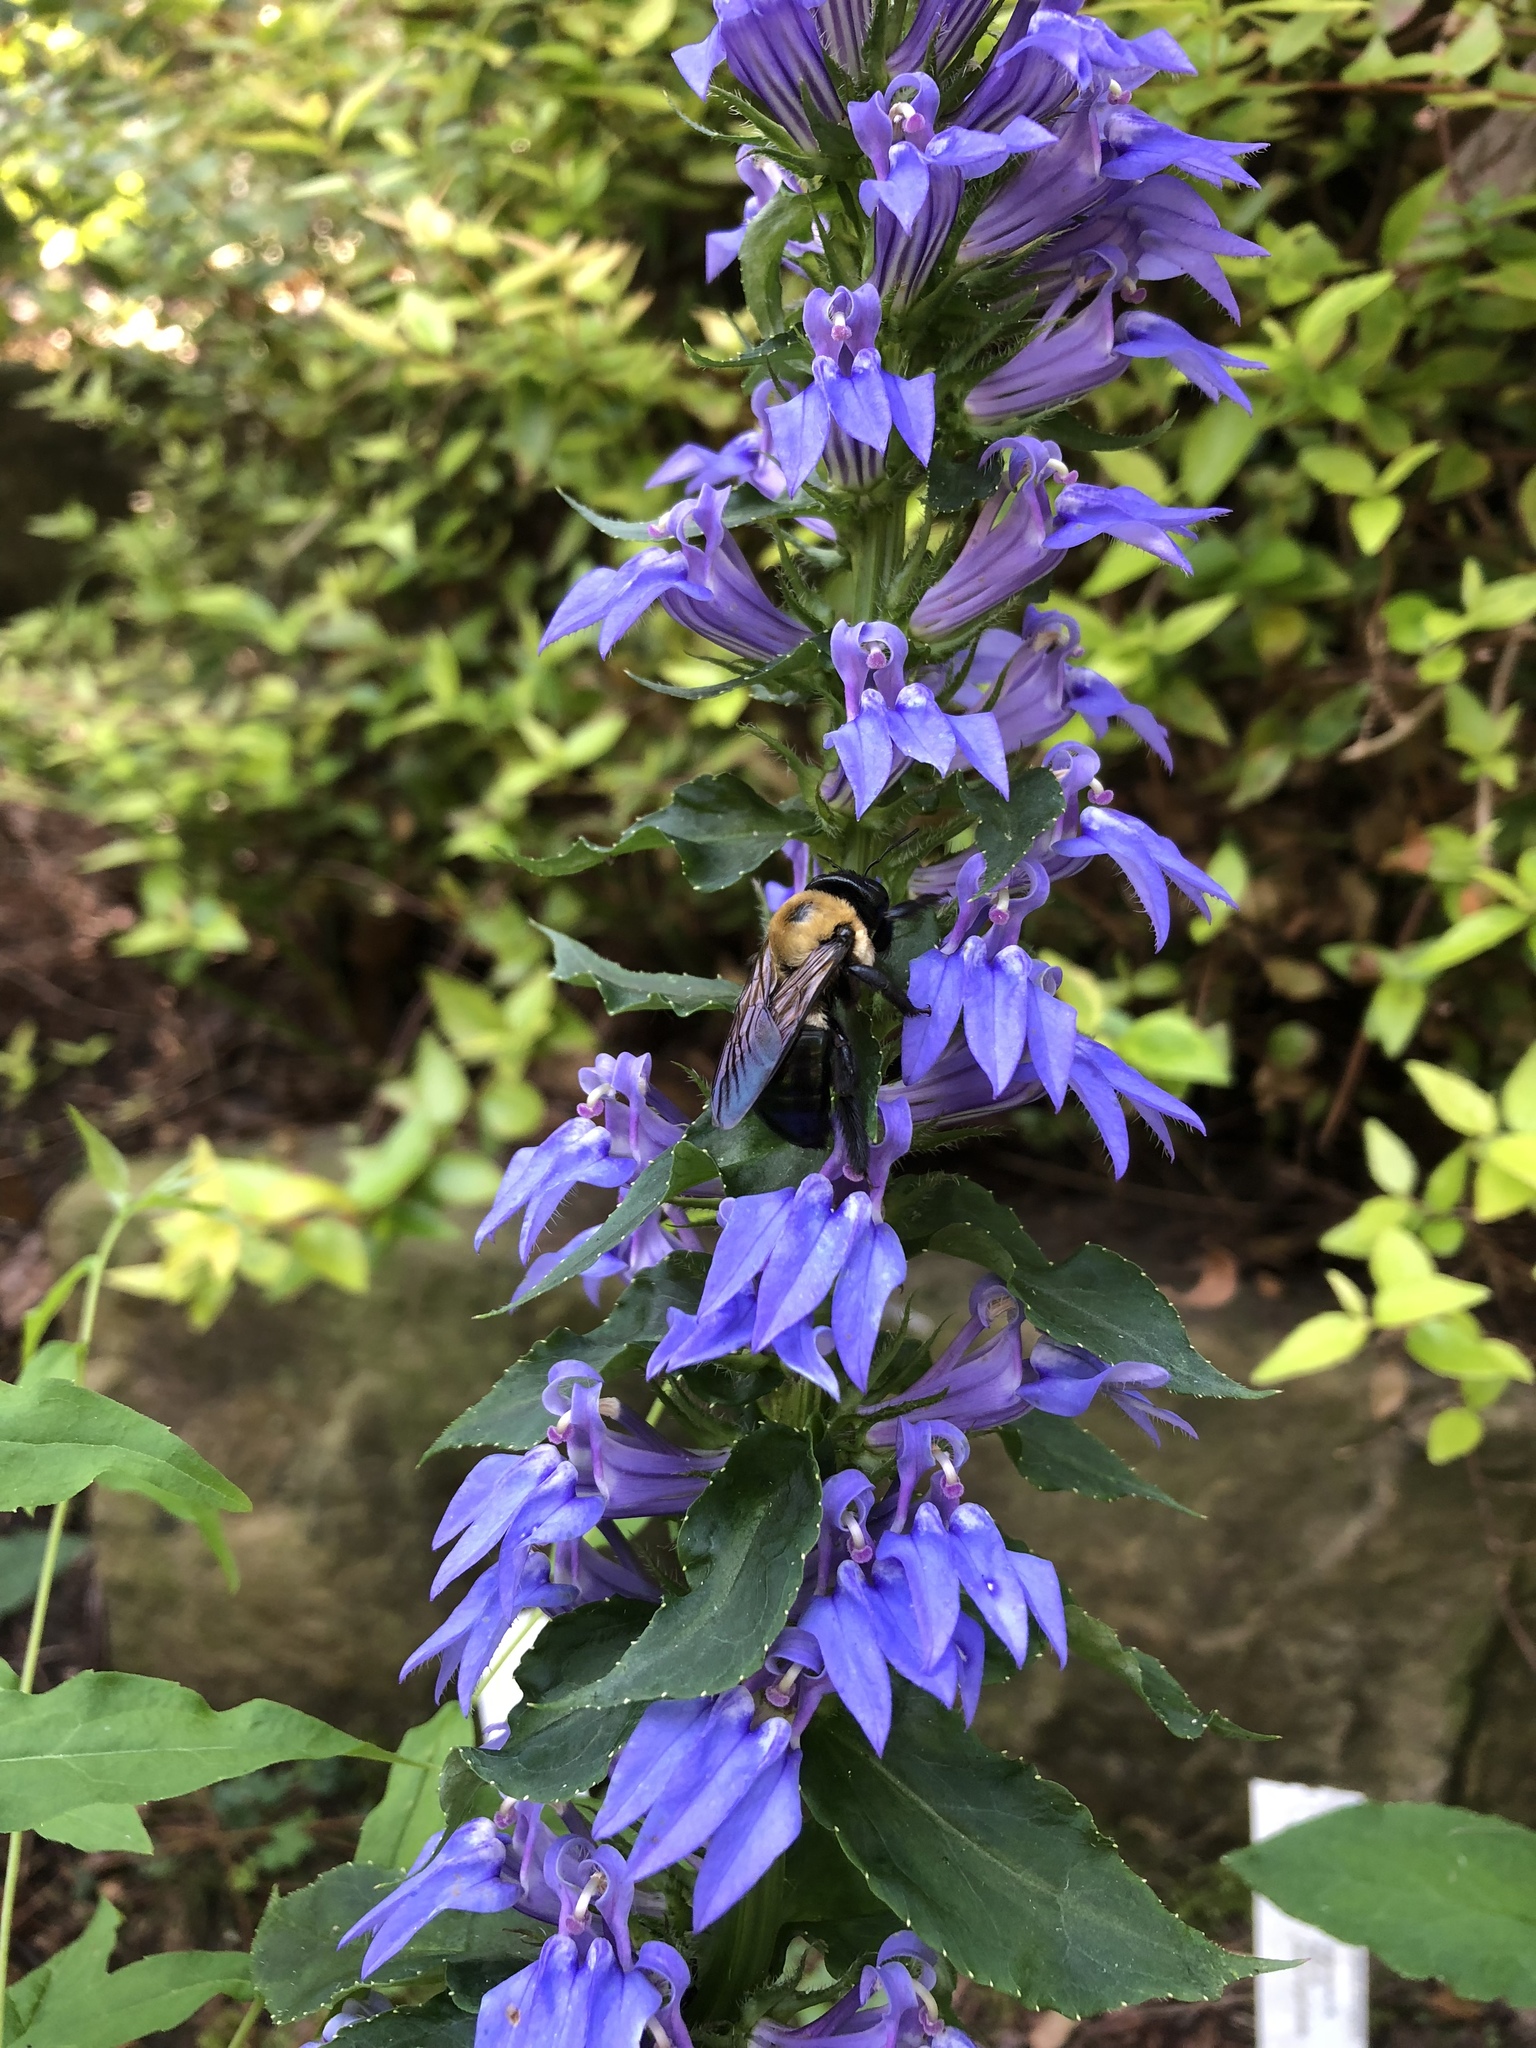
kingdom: Animalia
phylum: Arthropoda
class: Insecta
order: Hymenoptera
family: Apidae
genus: Xylocopa
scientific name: Xylocopa virginica
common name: Carpenter bee
